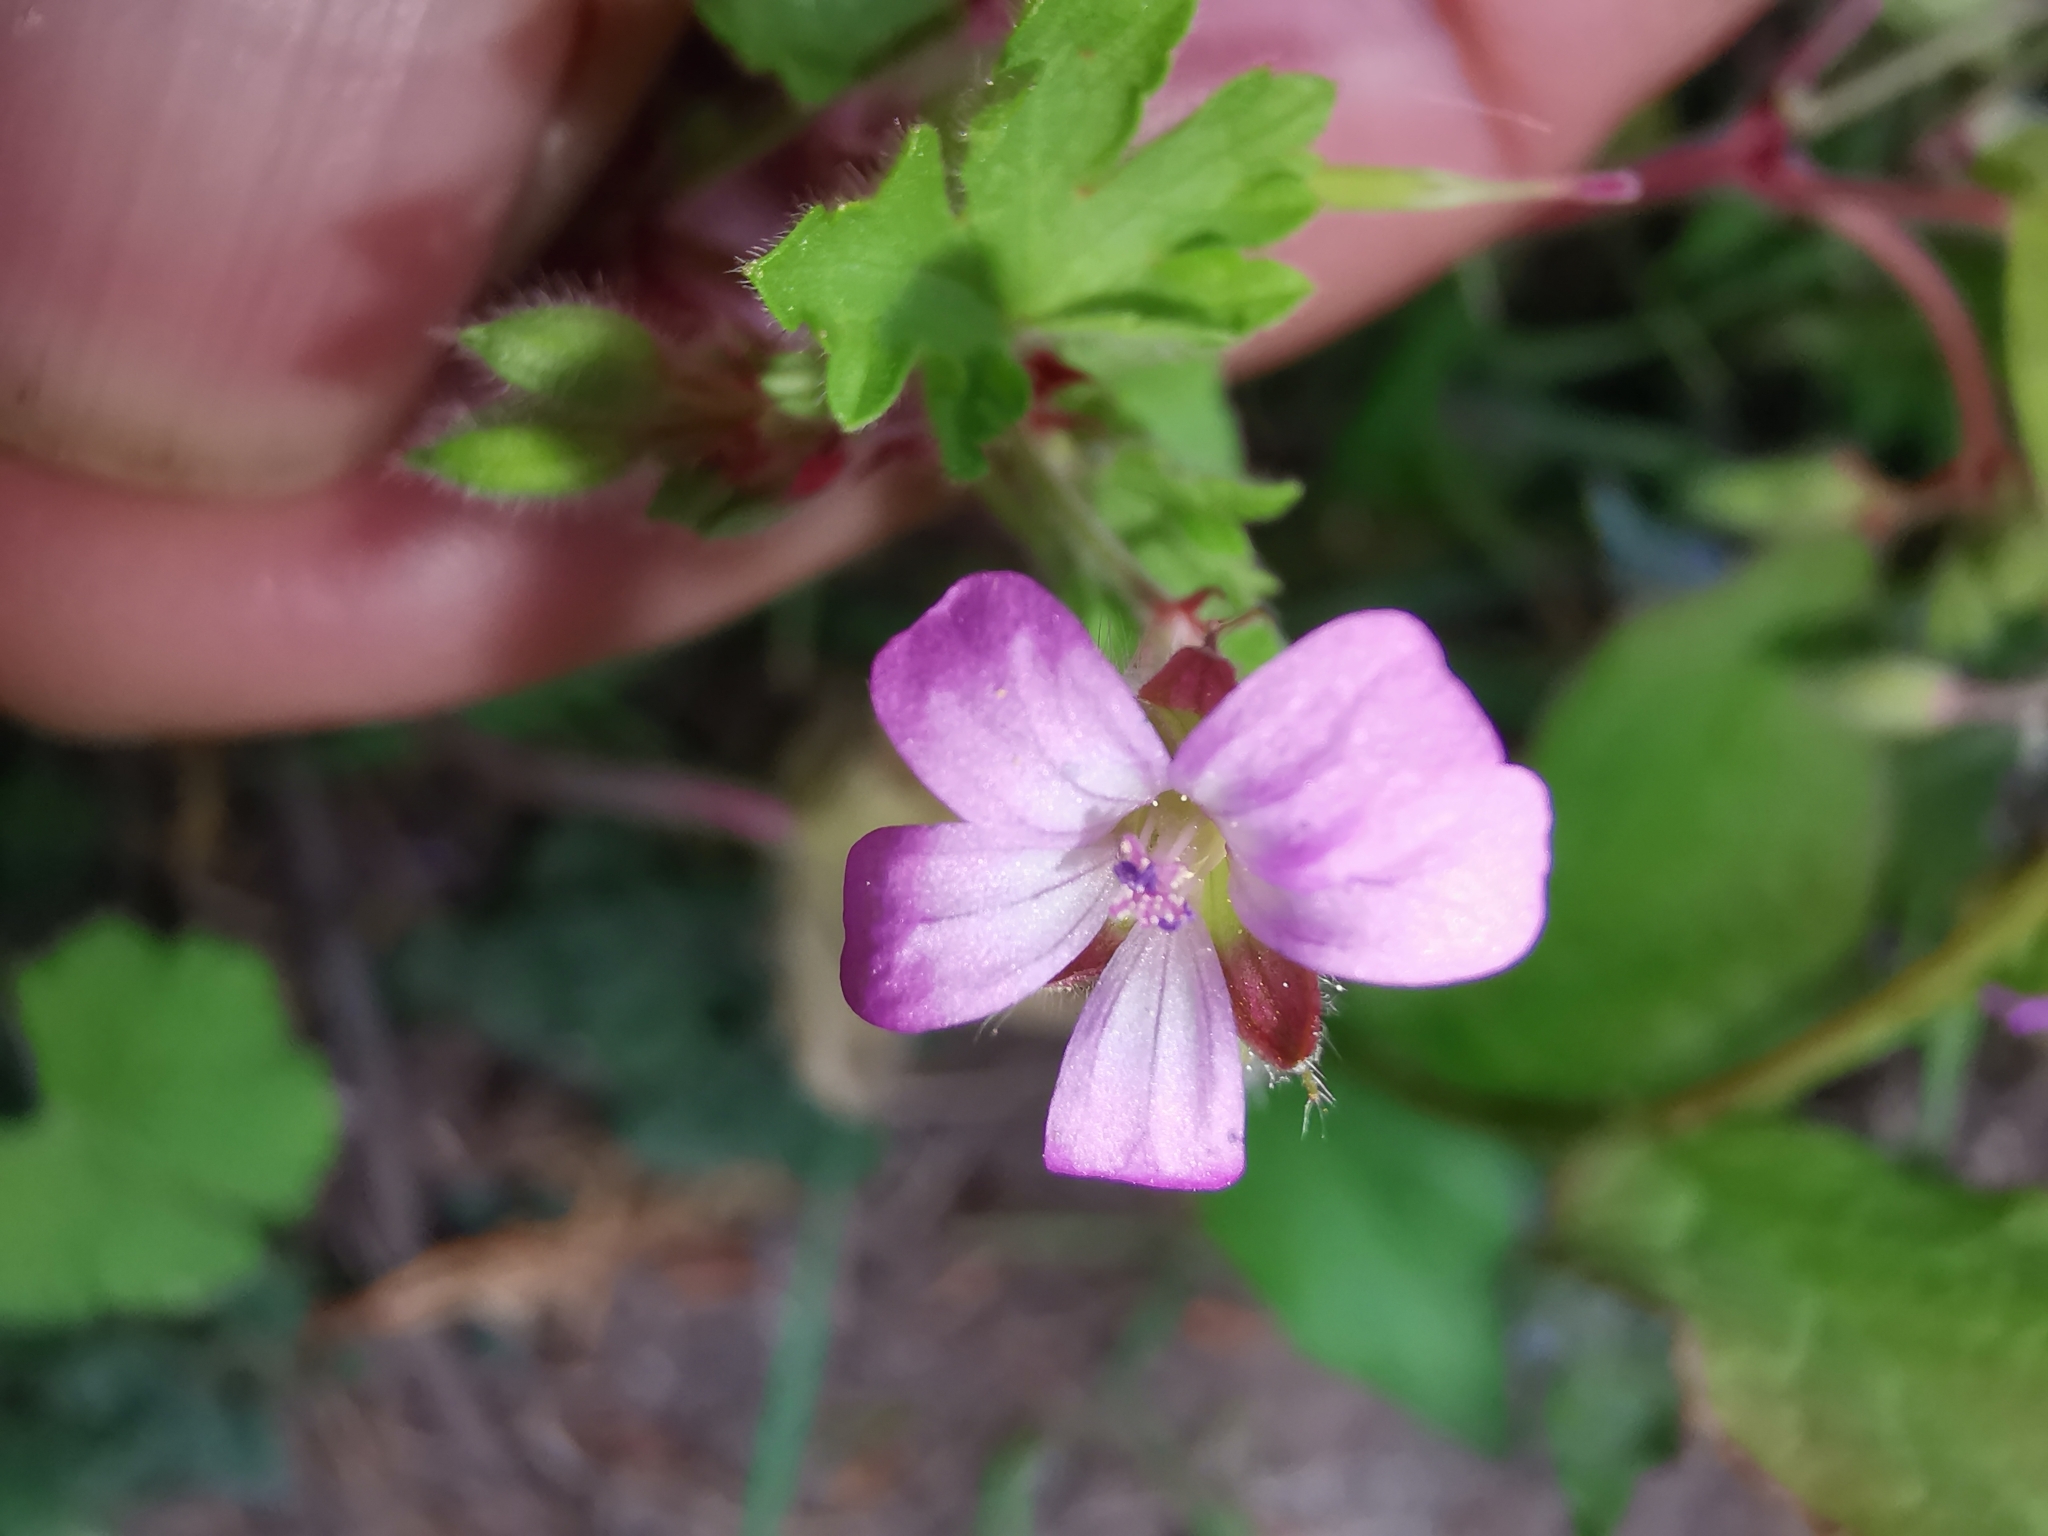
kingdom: Plantae
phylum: Tracheophyta
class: Magnoliopsida
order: Geraniales
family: Geraniaceae
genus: Geranium
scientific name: Geranium rotundifolium
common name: Round-leaved crane's-bill
